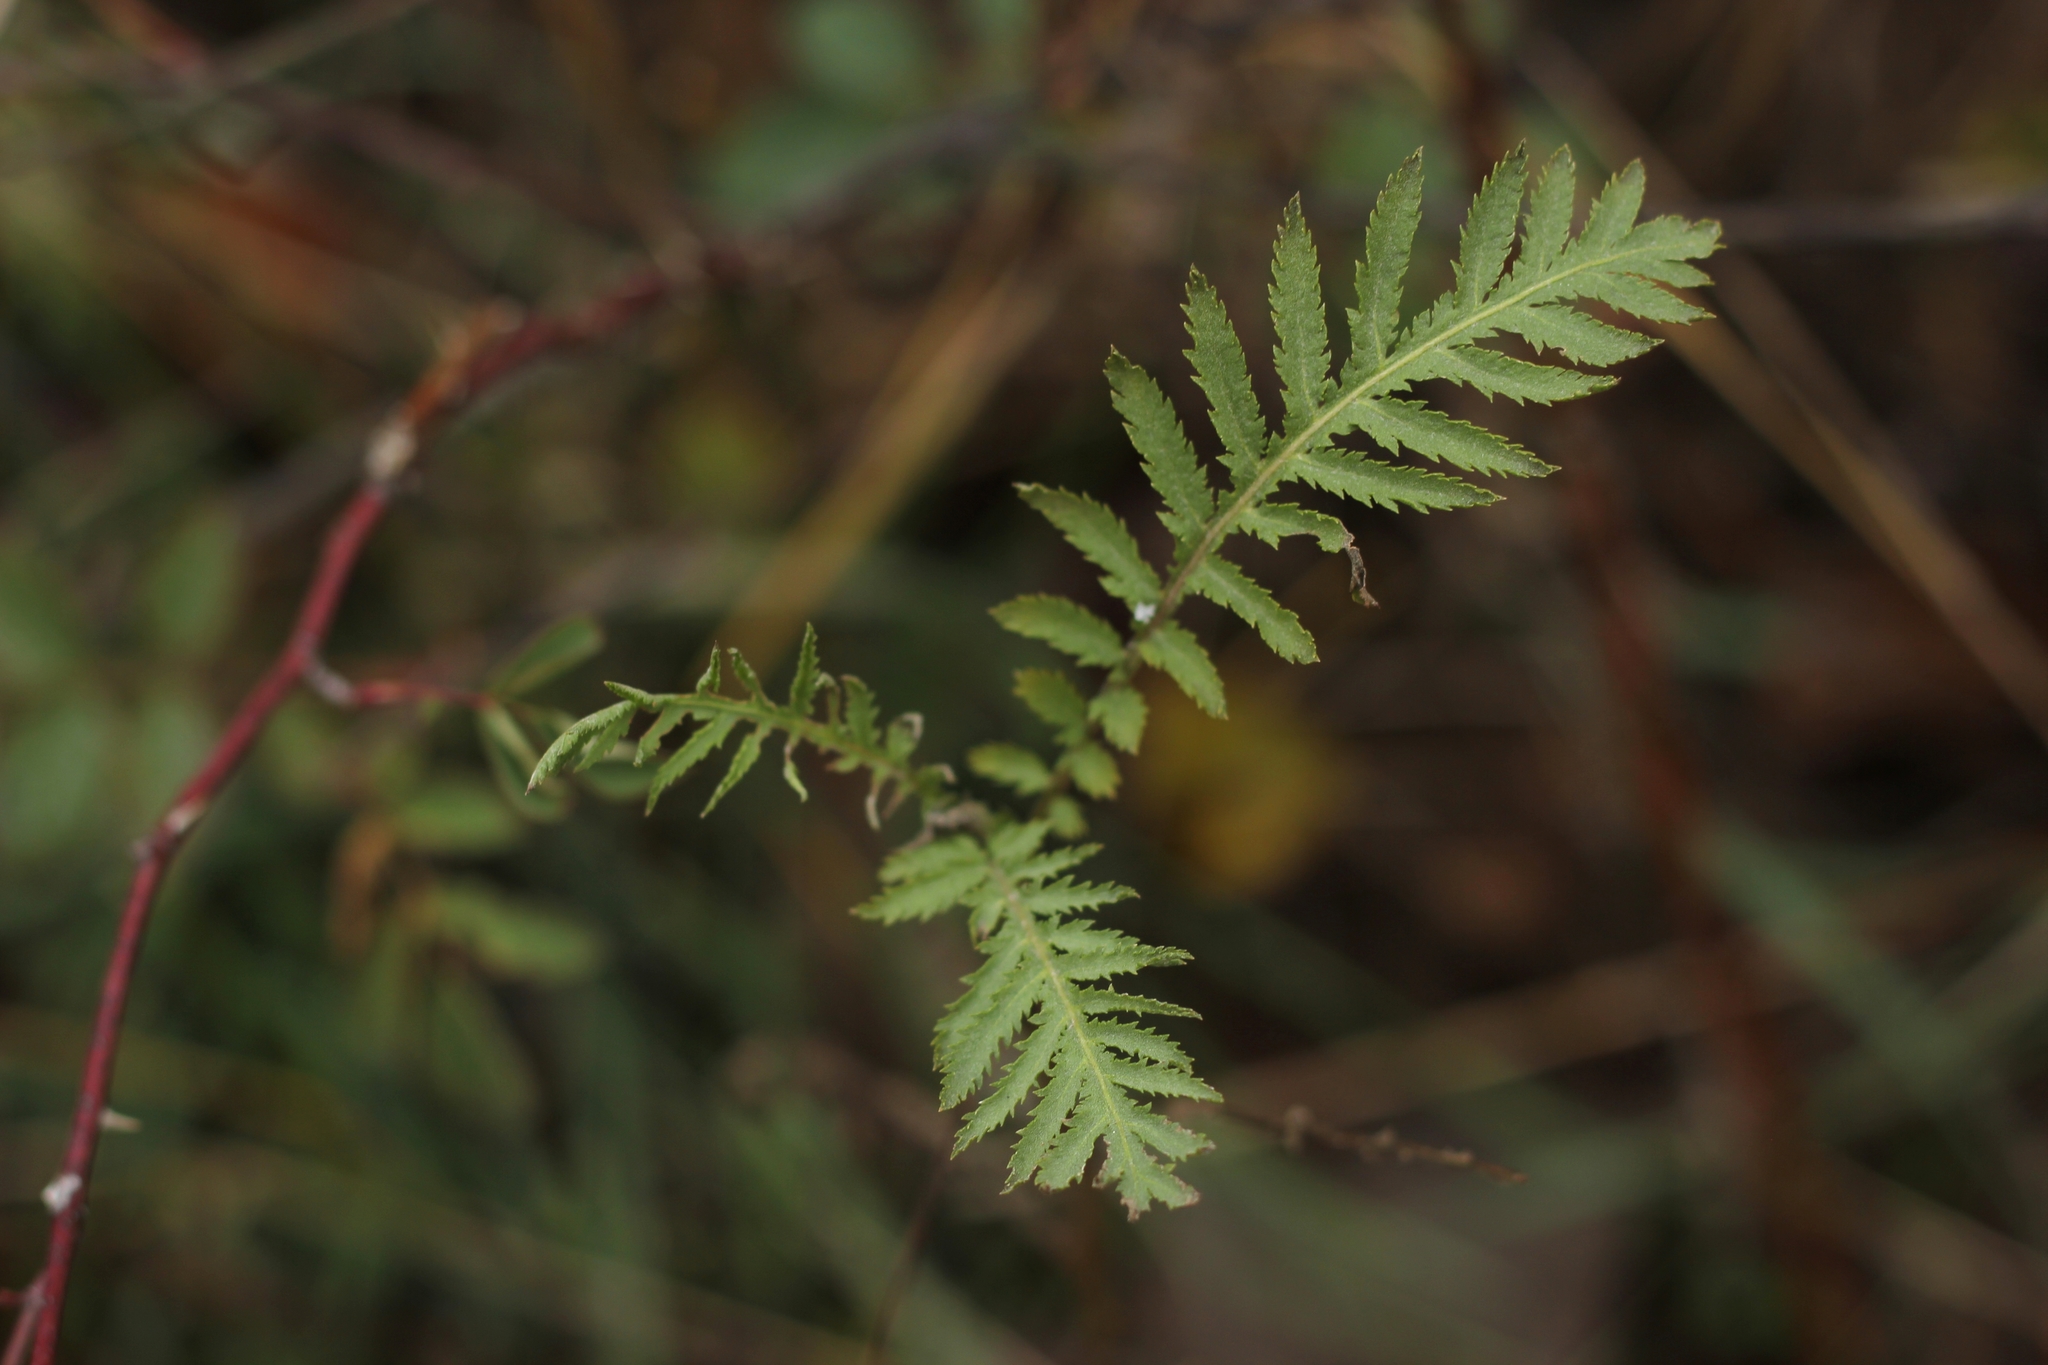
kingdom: Plantae
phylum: Tracheophyta
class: Magnoliopsida
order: Asterales
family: Asteraceae
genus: Tanacetum
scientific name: Tanacetum vulgare
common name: Common tansy
